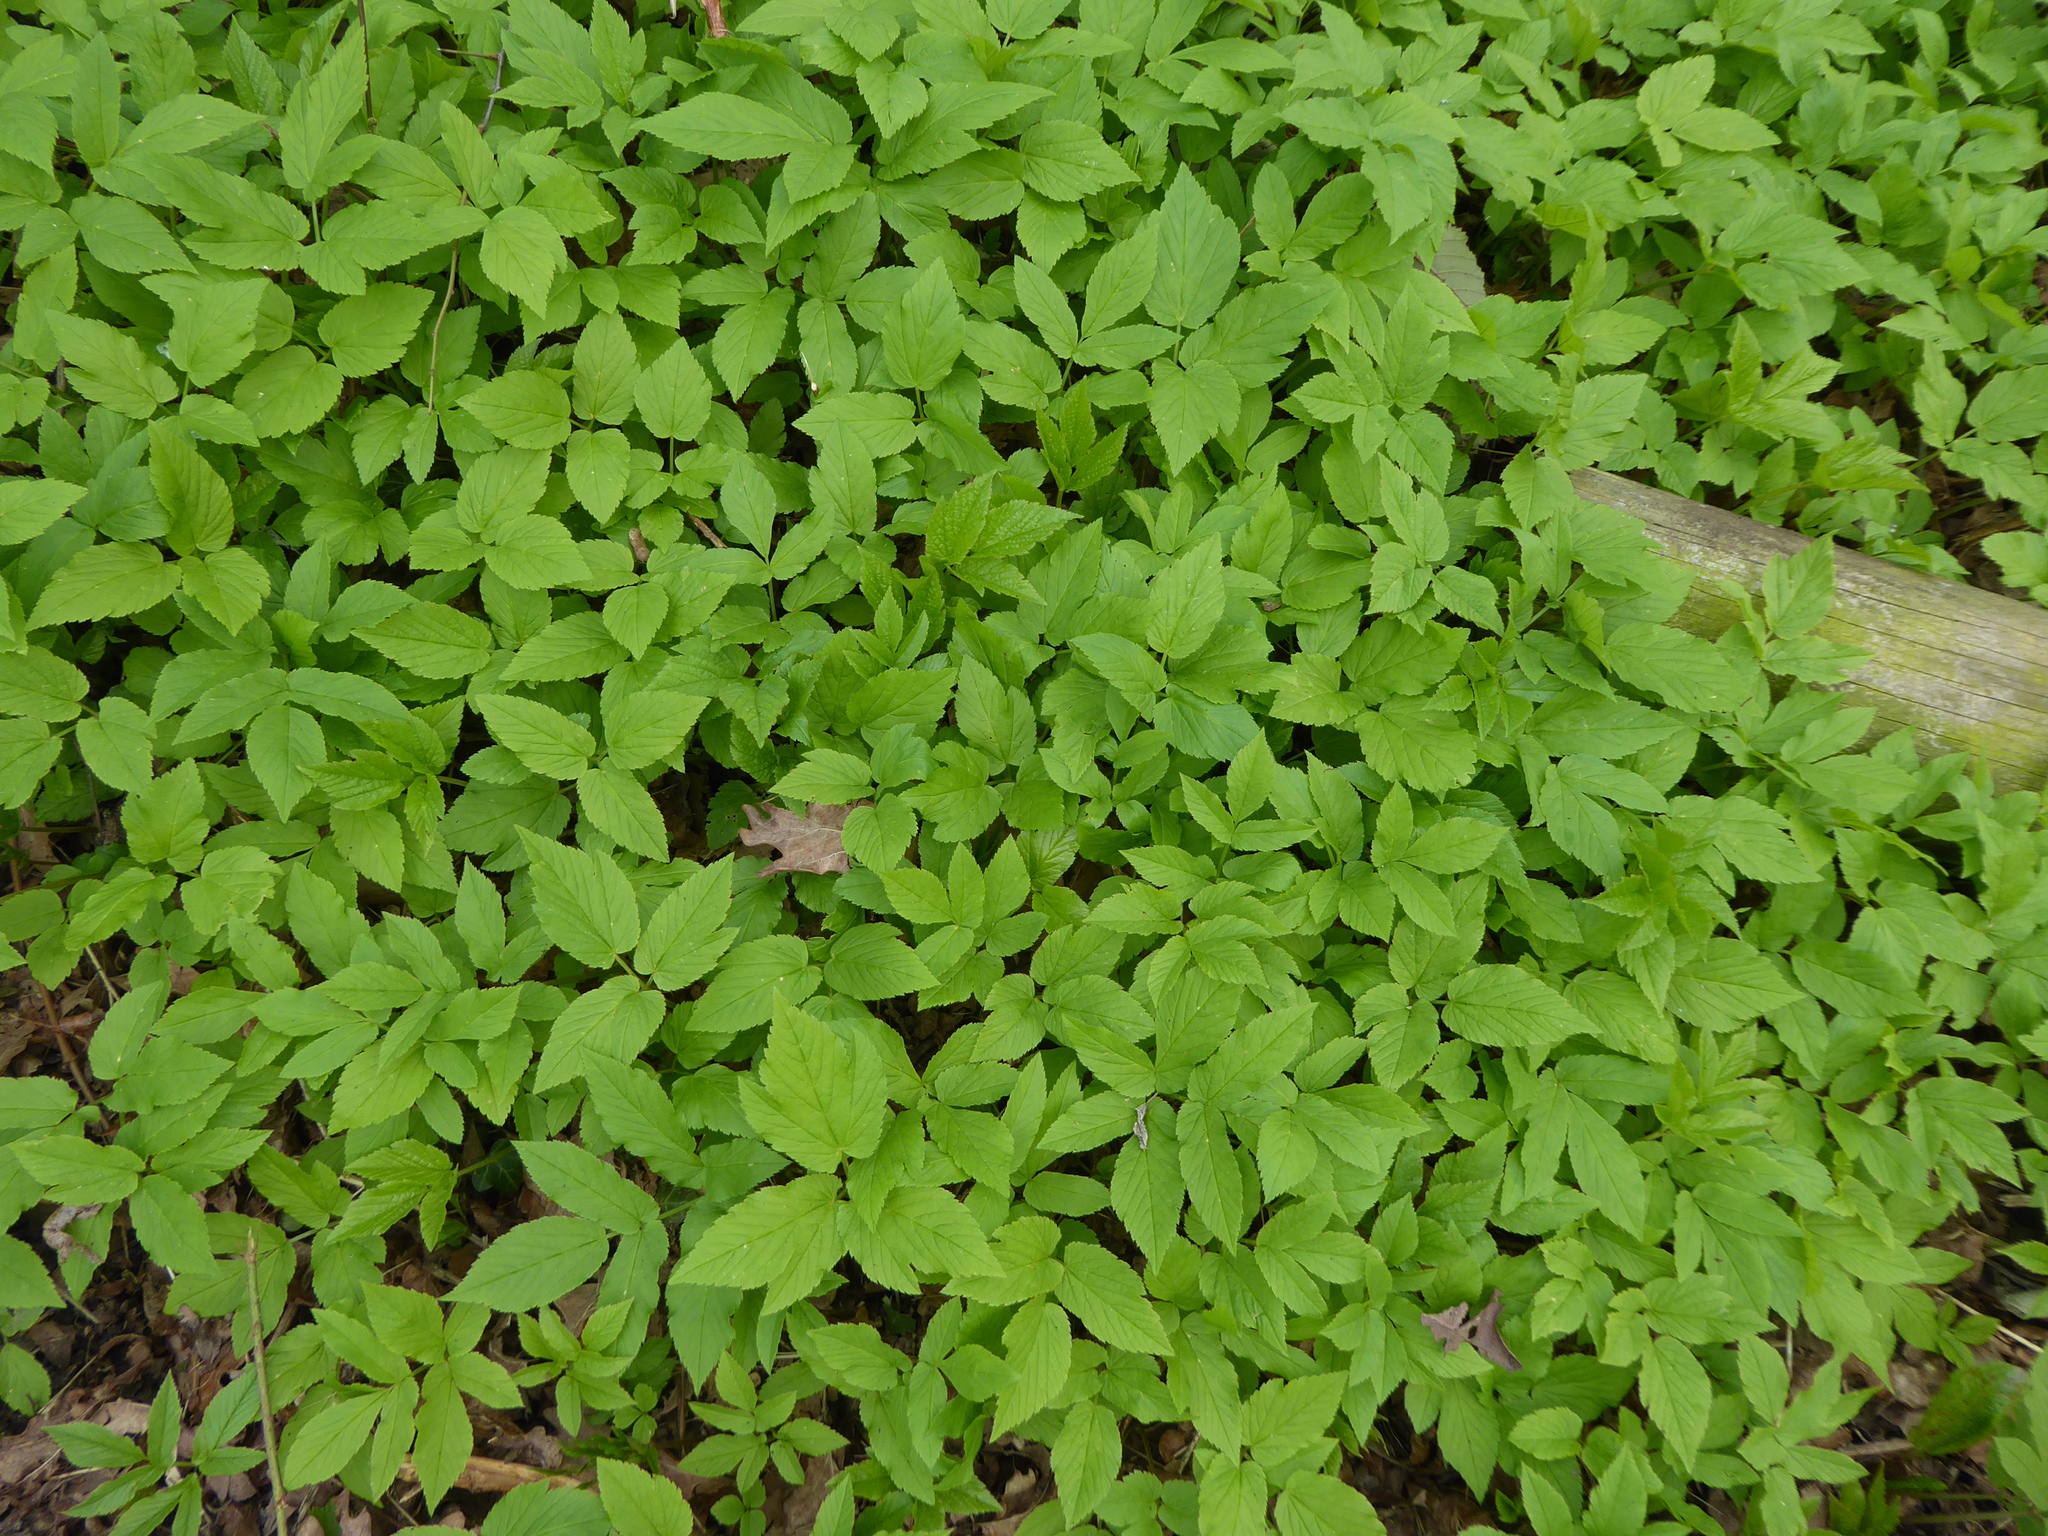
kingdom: Plantae
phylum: Tracheophyta
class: Magnoliopsida
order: Apiales
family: Apiaceae
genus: Aegopodium
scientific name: Aegopodium podagraria
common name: Ground-elder
